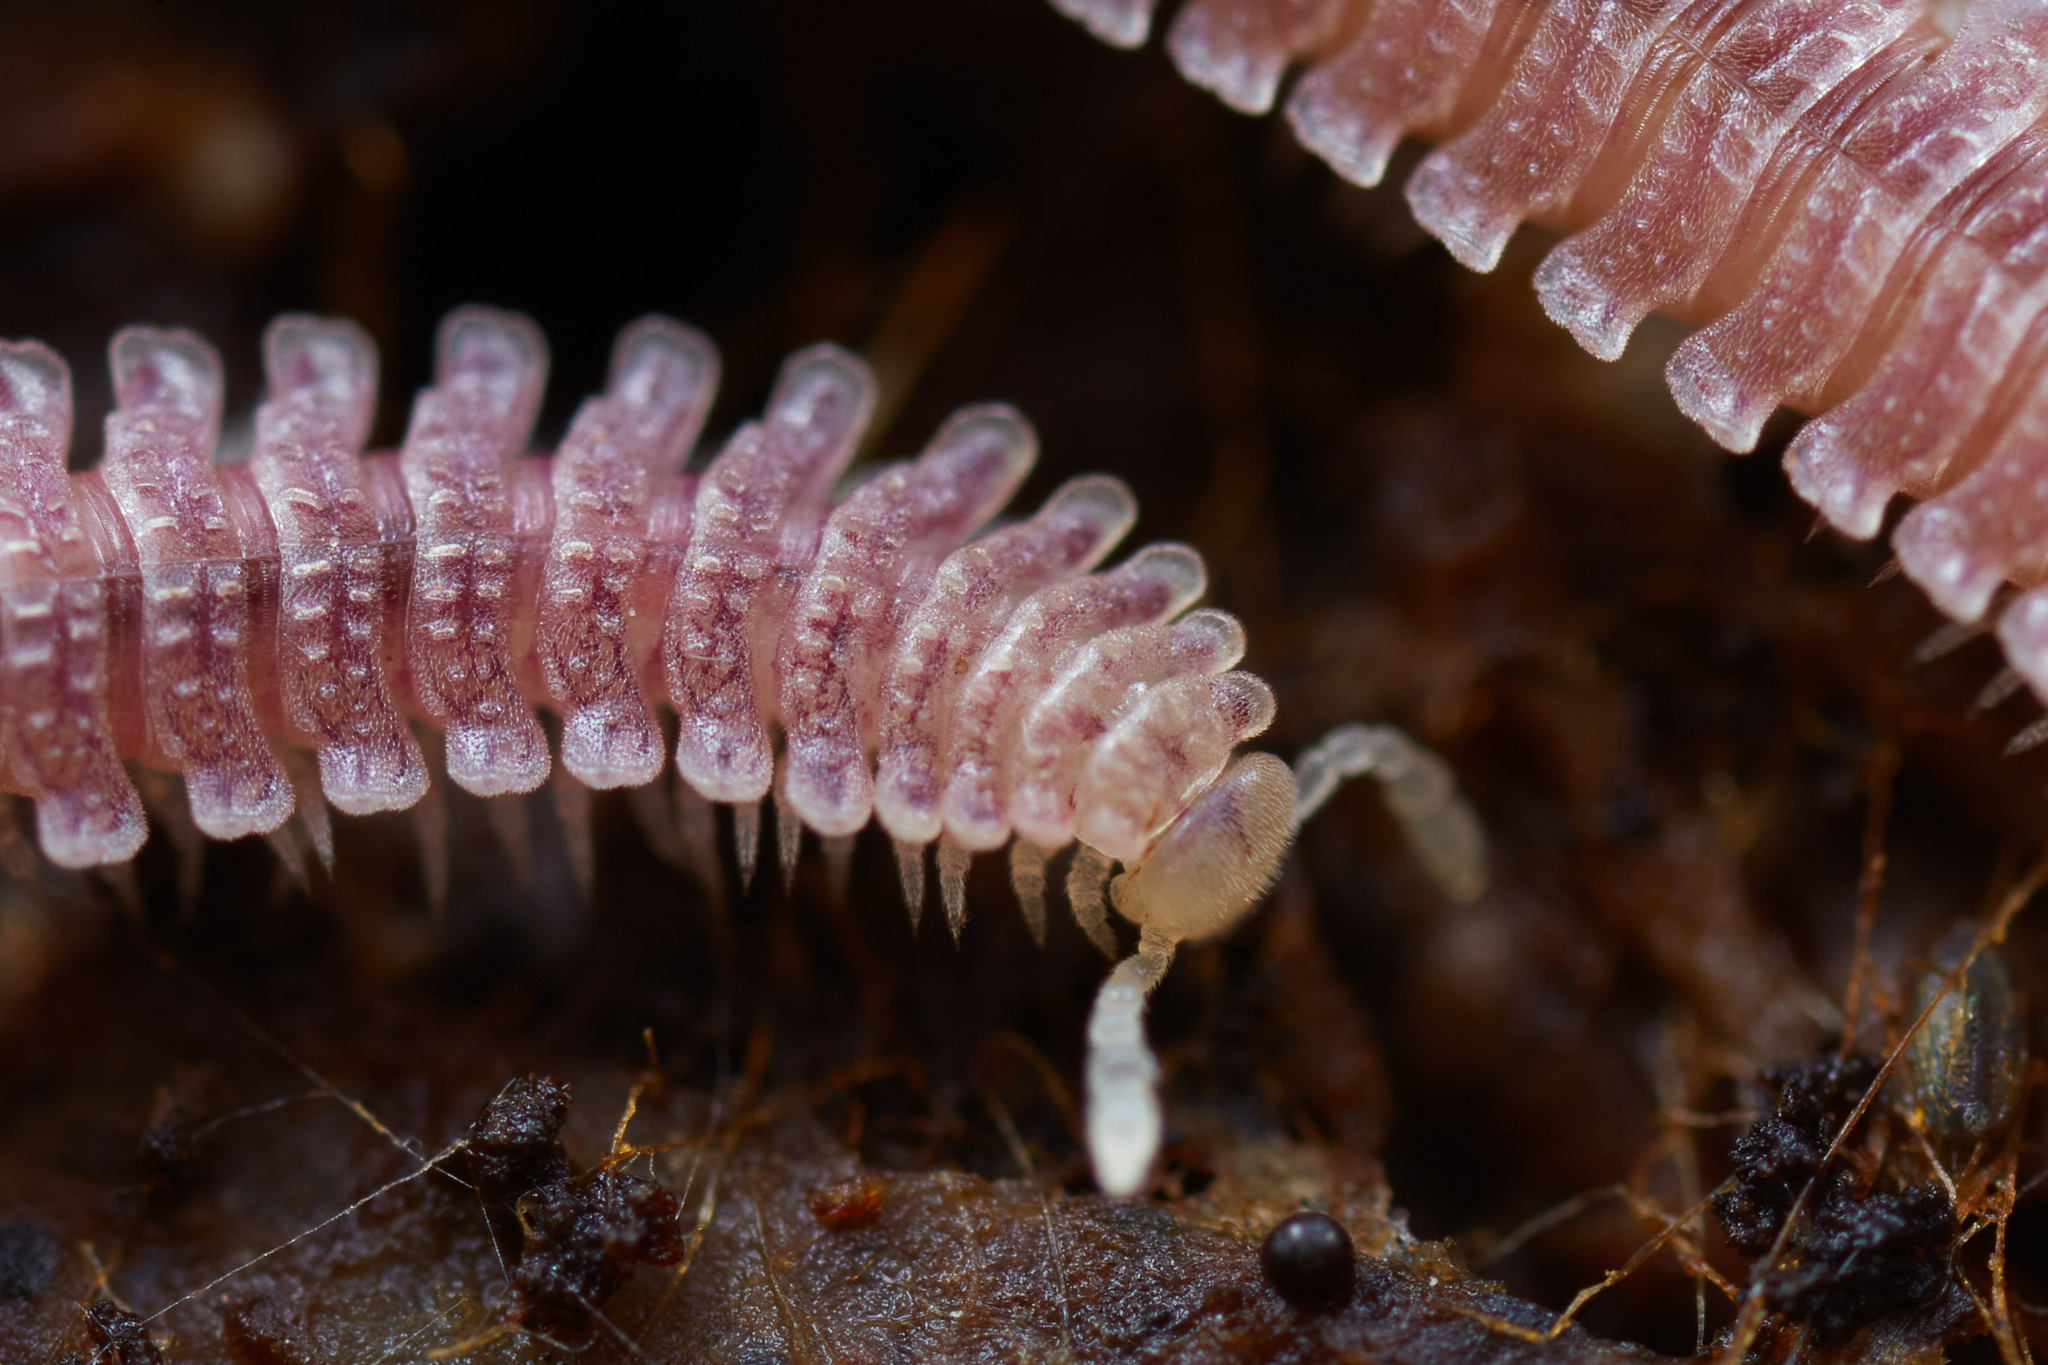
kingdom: Animalia
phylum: Arthropoda
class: Diplopoda
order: Platydesmida
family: Andrognathidae
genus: Gosodesmus
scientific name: Gosodesmus claremontus
